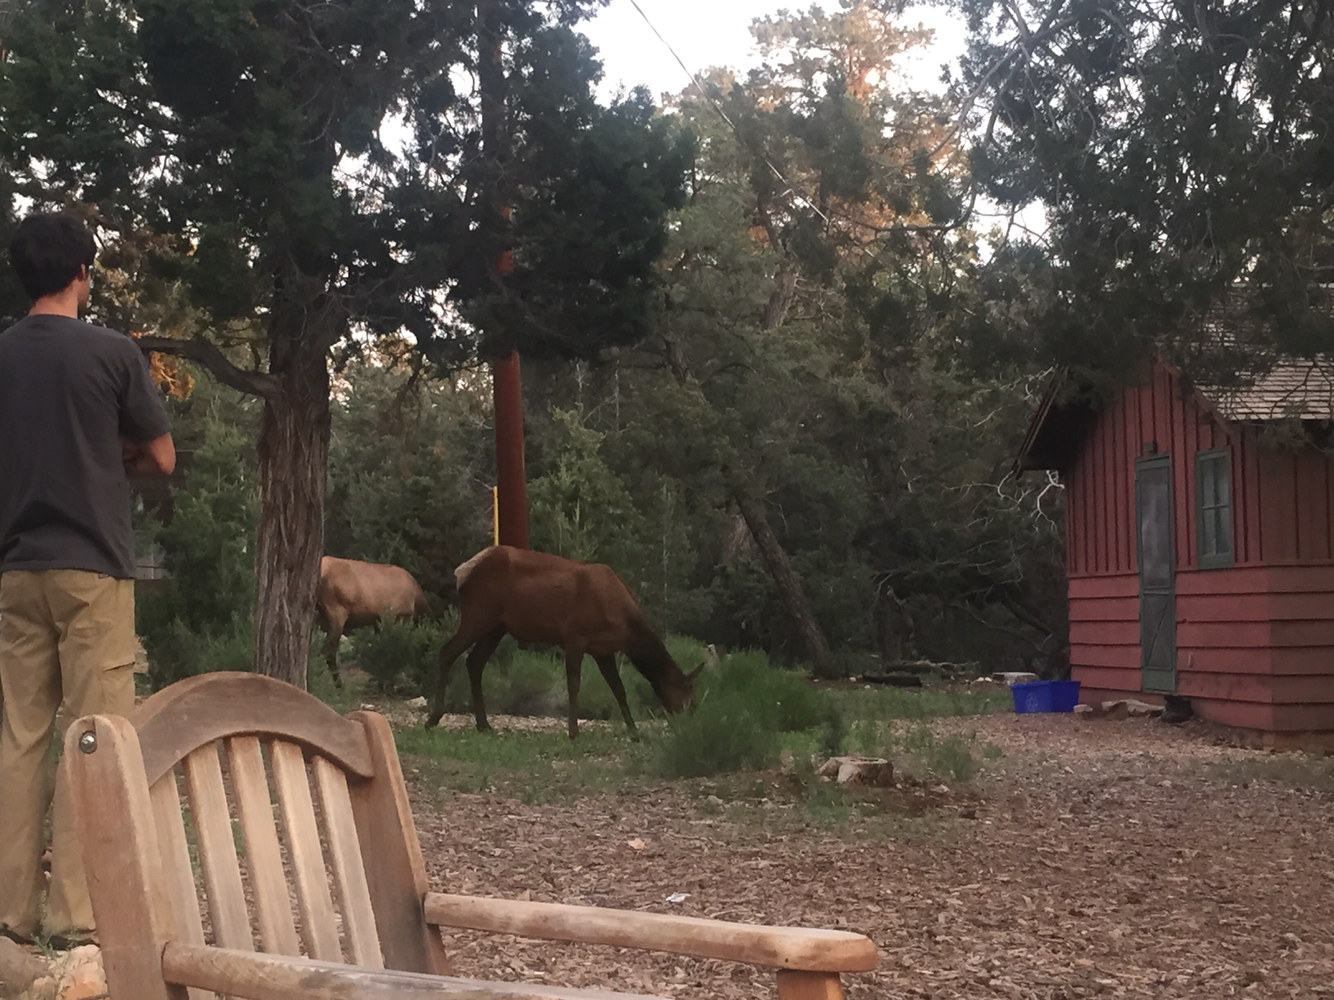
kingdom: Animalia
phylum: Chordata
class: Mammalia
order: Artiodactyla
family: Cervidae
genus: Cervus
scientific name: Cervus elaphus
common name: Red deer
